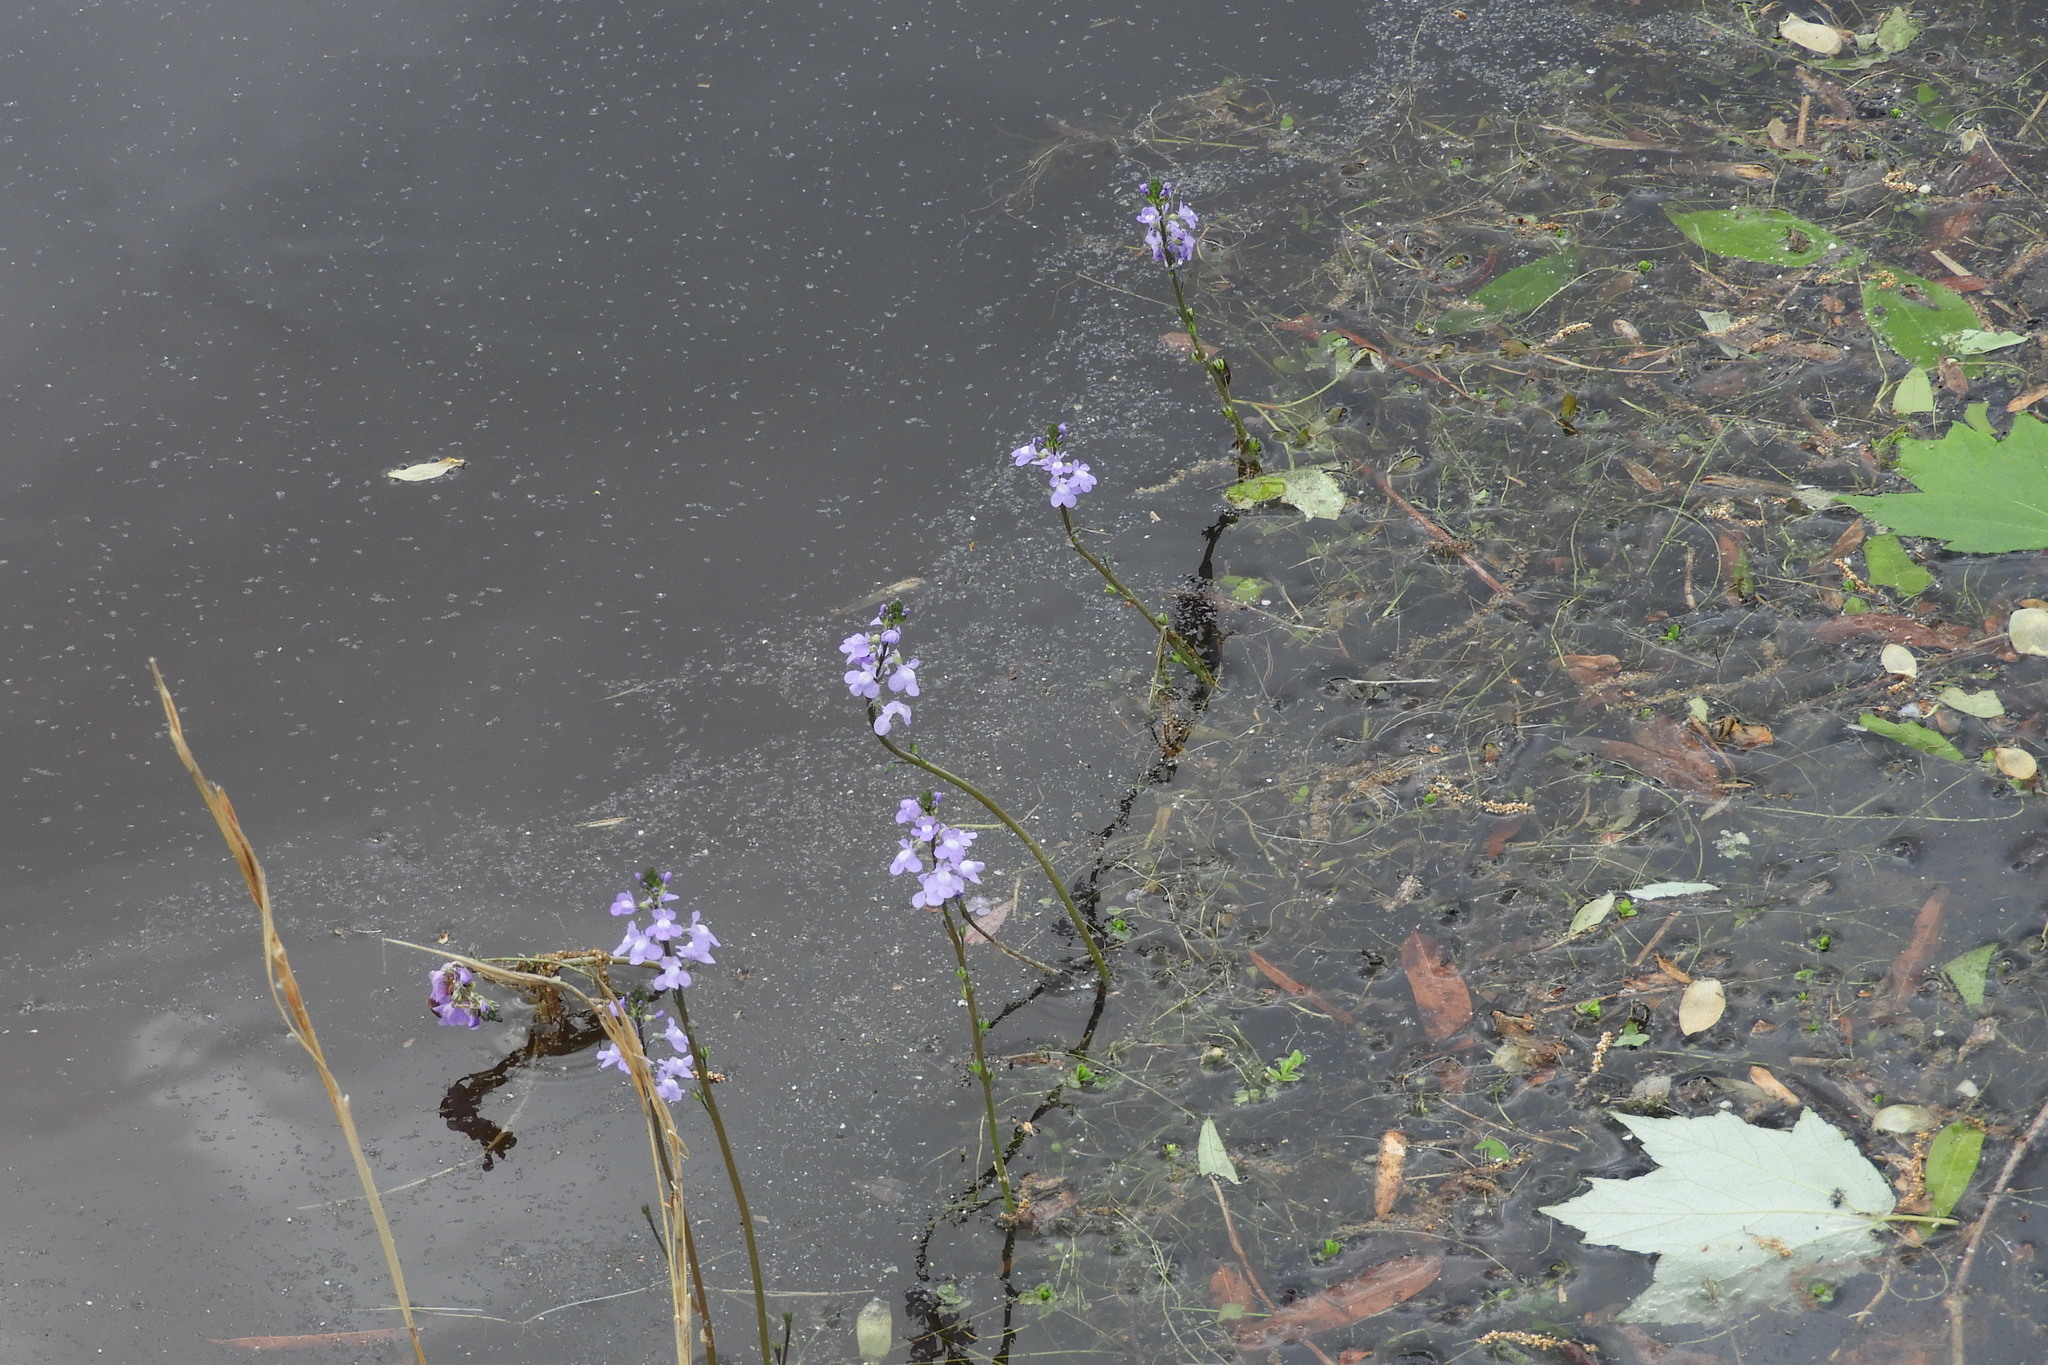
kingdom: Plantae
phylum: Tracheophyta
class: Magnoliopsida
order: Lamiales
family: Plantaginaceae
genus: Nuttallanthus
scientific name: Nuttallanthus canadensis
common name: Blue toadflax
